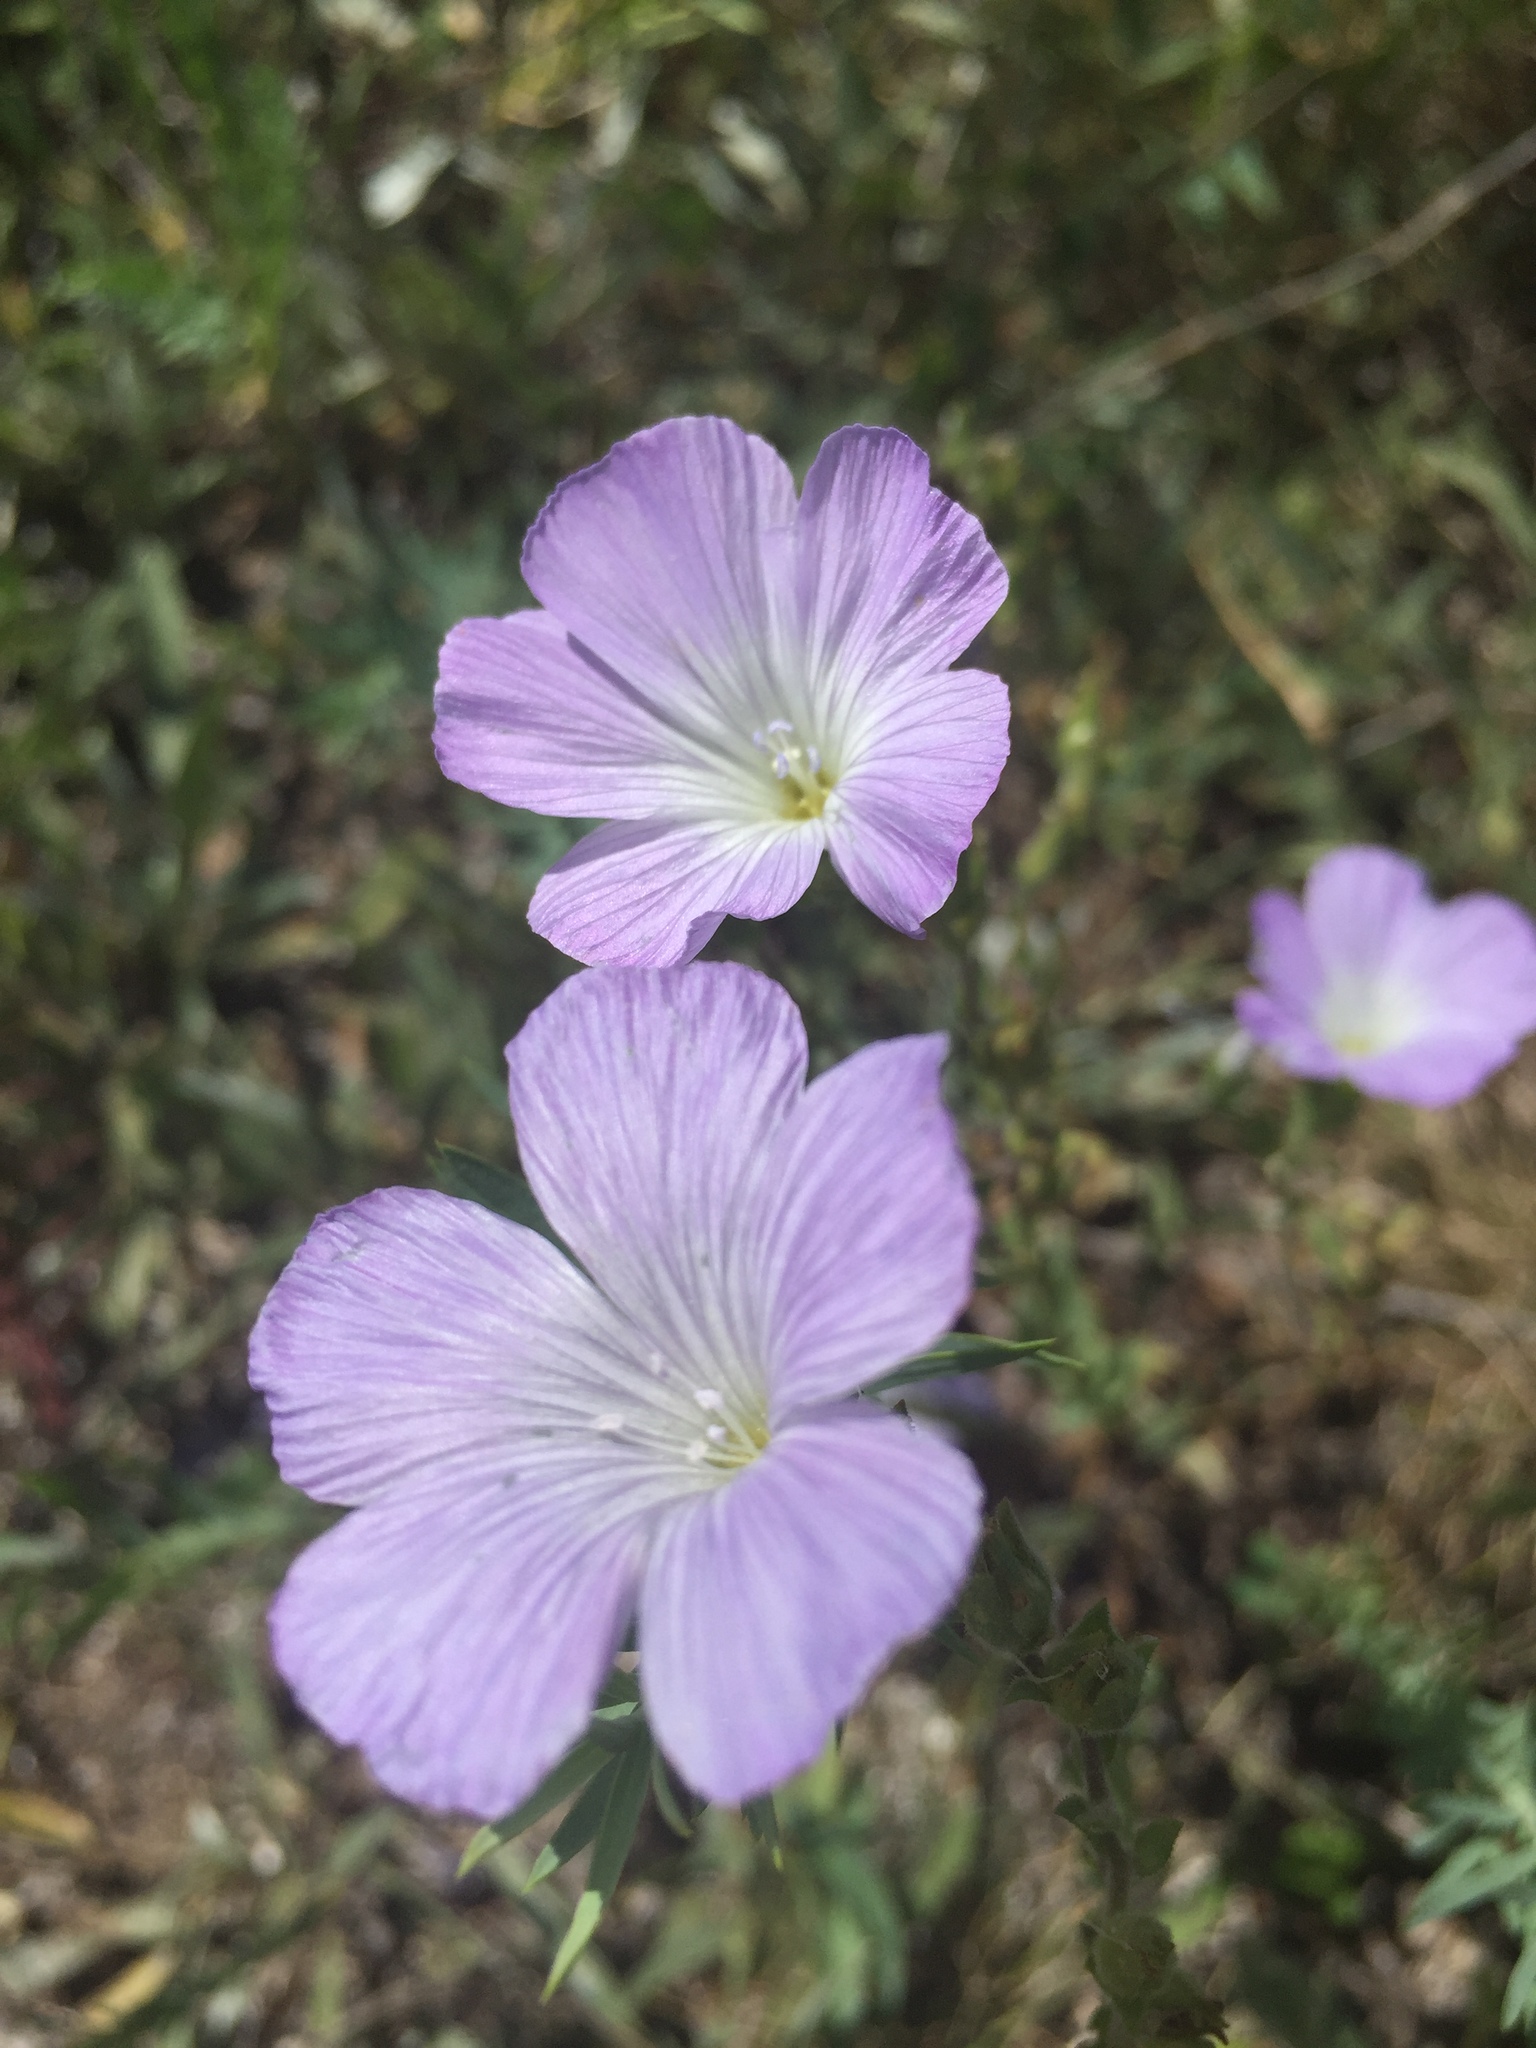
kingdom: Plantae
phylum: Tracheophyta
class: Magnoliopsida
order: Malpighiales
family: Linaceae
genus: Linum
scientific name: Linum hirsutum
